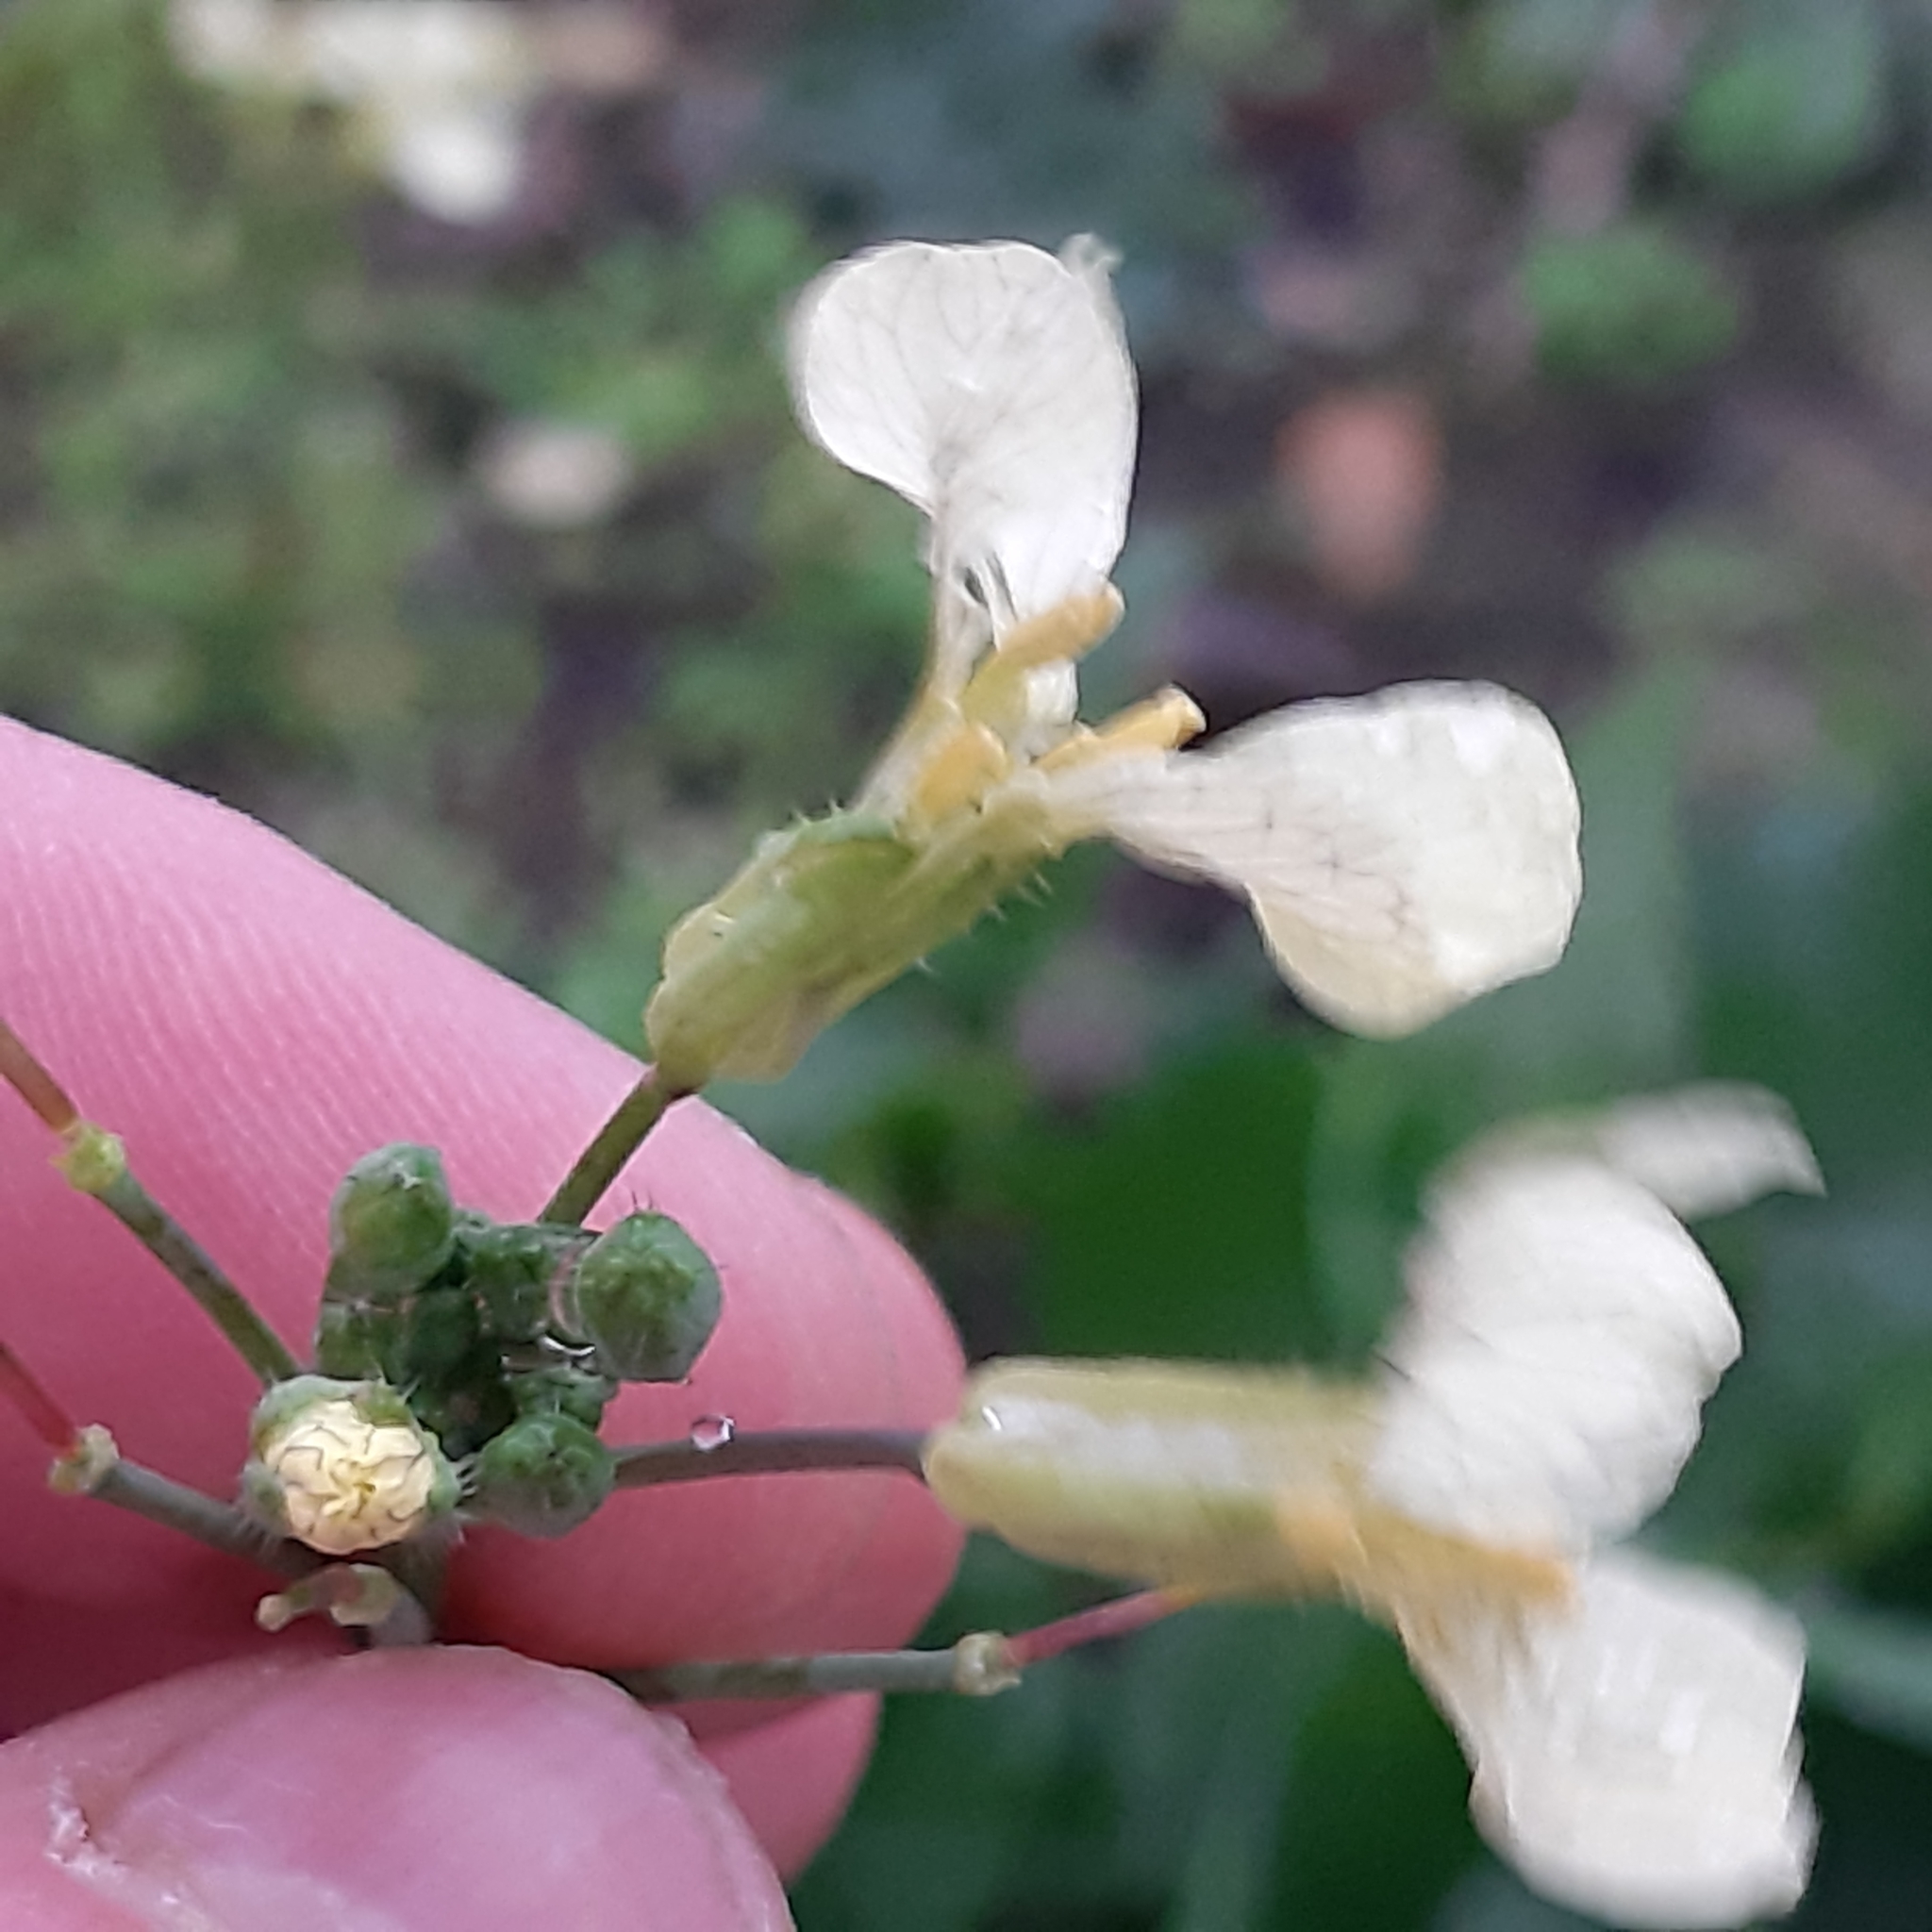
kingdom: Plantae
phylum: Tracheophyta
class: Magnoliopsida
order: Brassicales
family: Brassicaceae
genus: Raphanus
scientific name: Raphanus raphanistrum
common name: Wild radish
